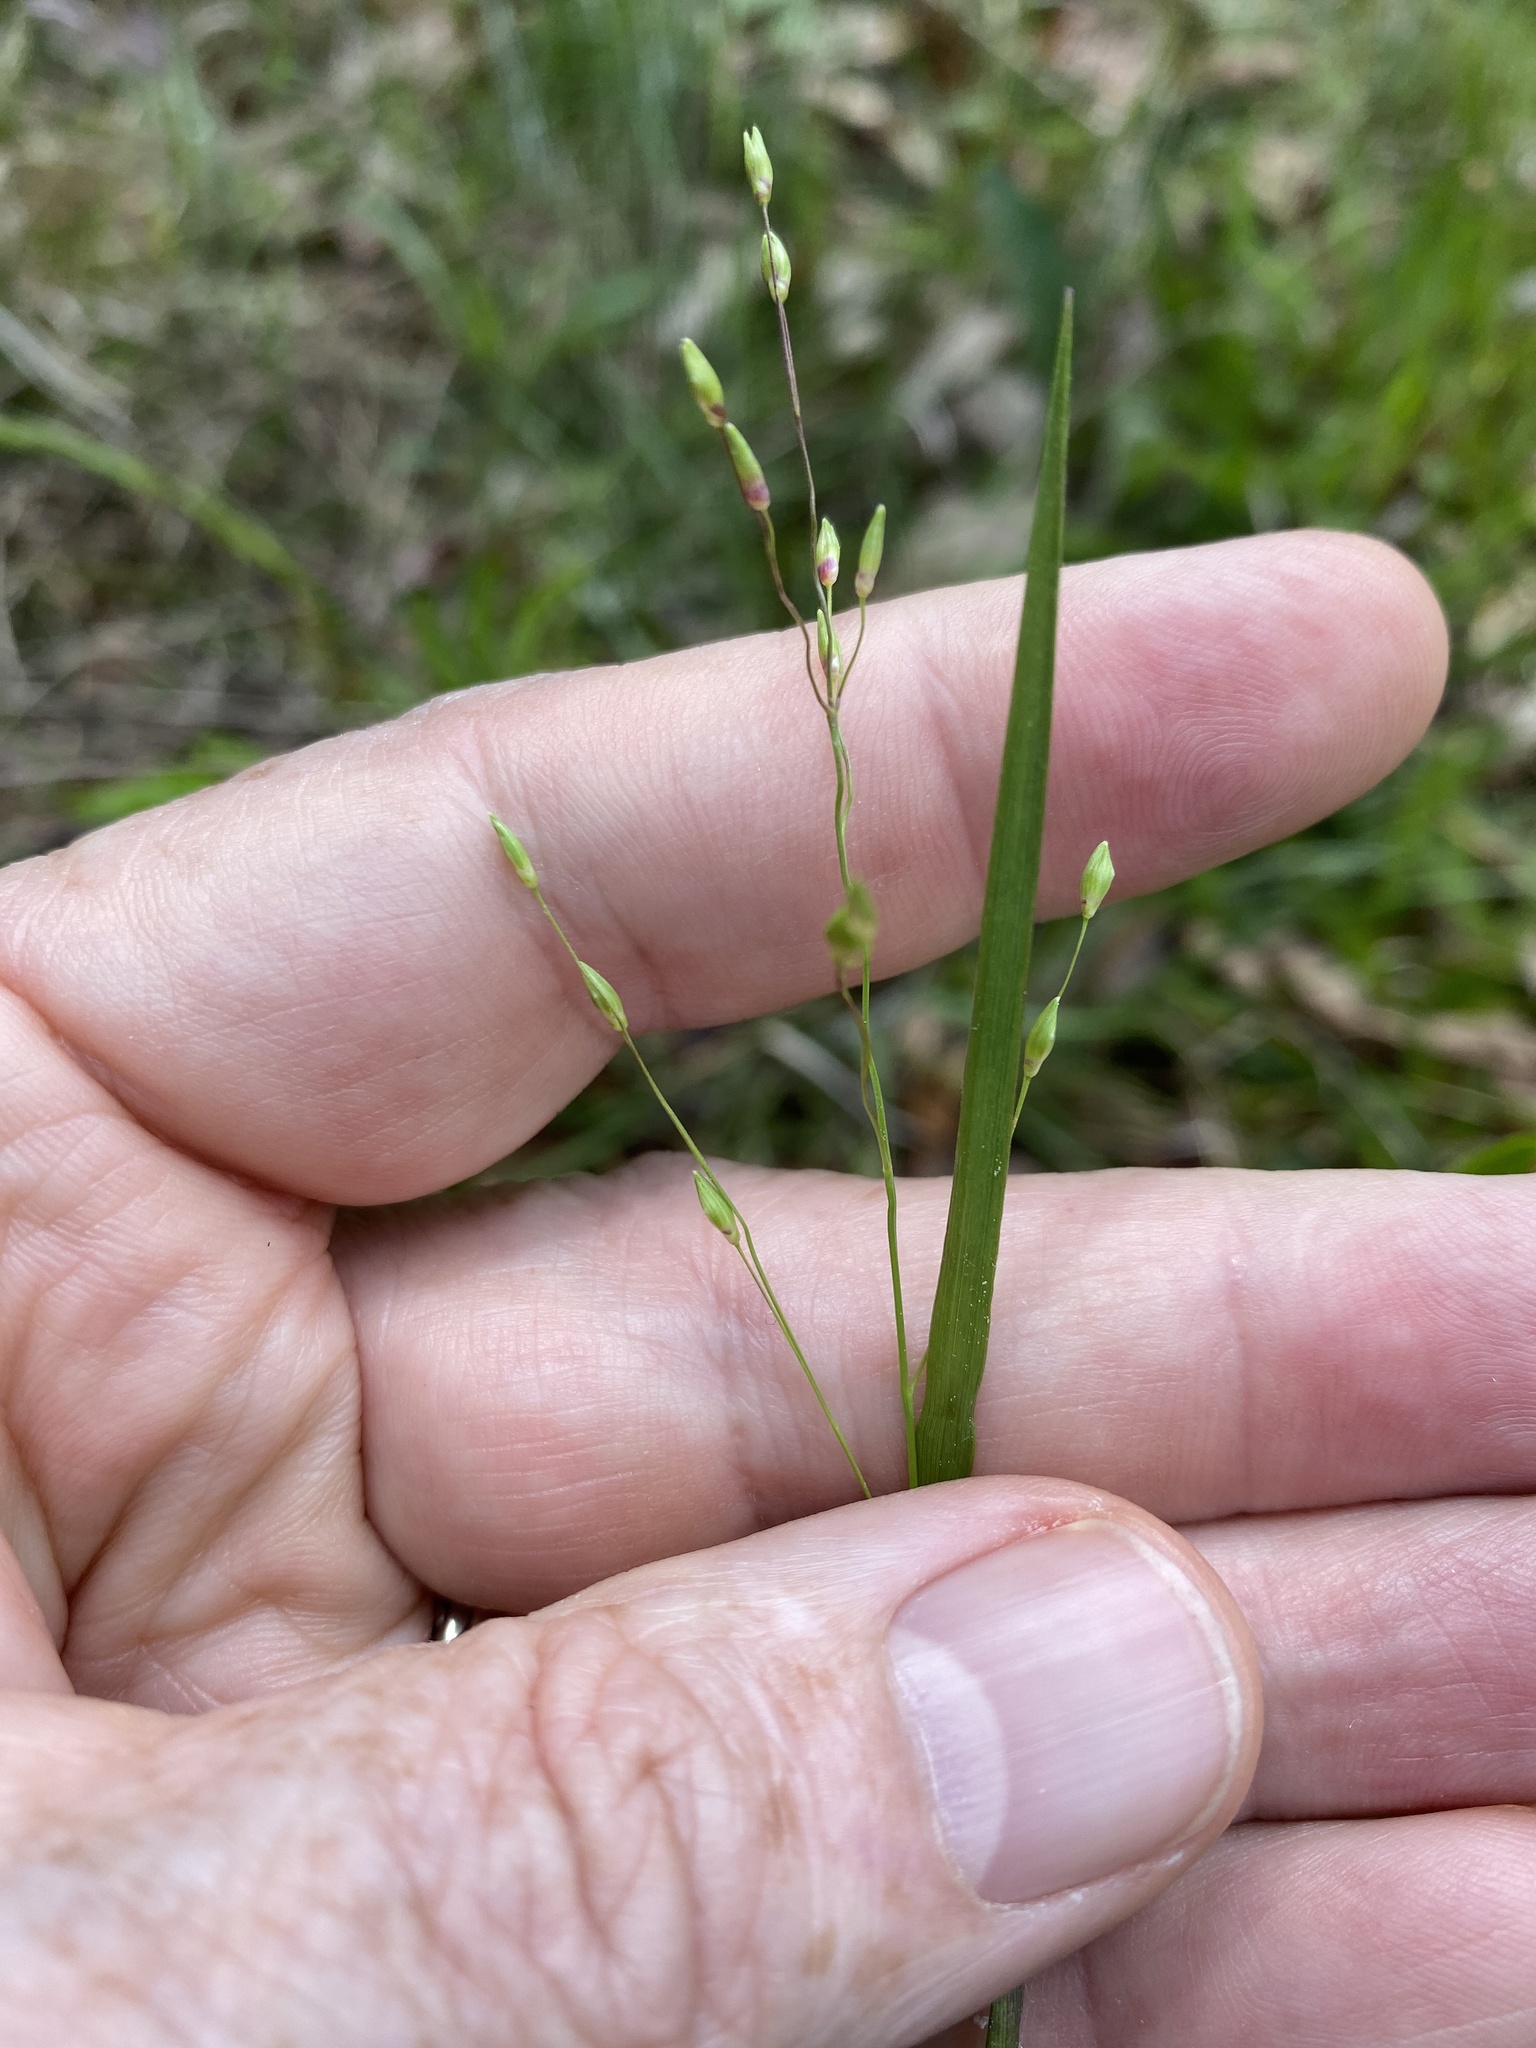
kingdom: Plantae
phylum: Tracheophyta
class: Liliopsida
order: Poales
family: Poaceae
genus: Dichanthelium
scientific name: Dichanthelium depauperatum
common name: Depauperate panicgrass
